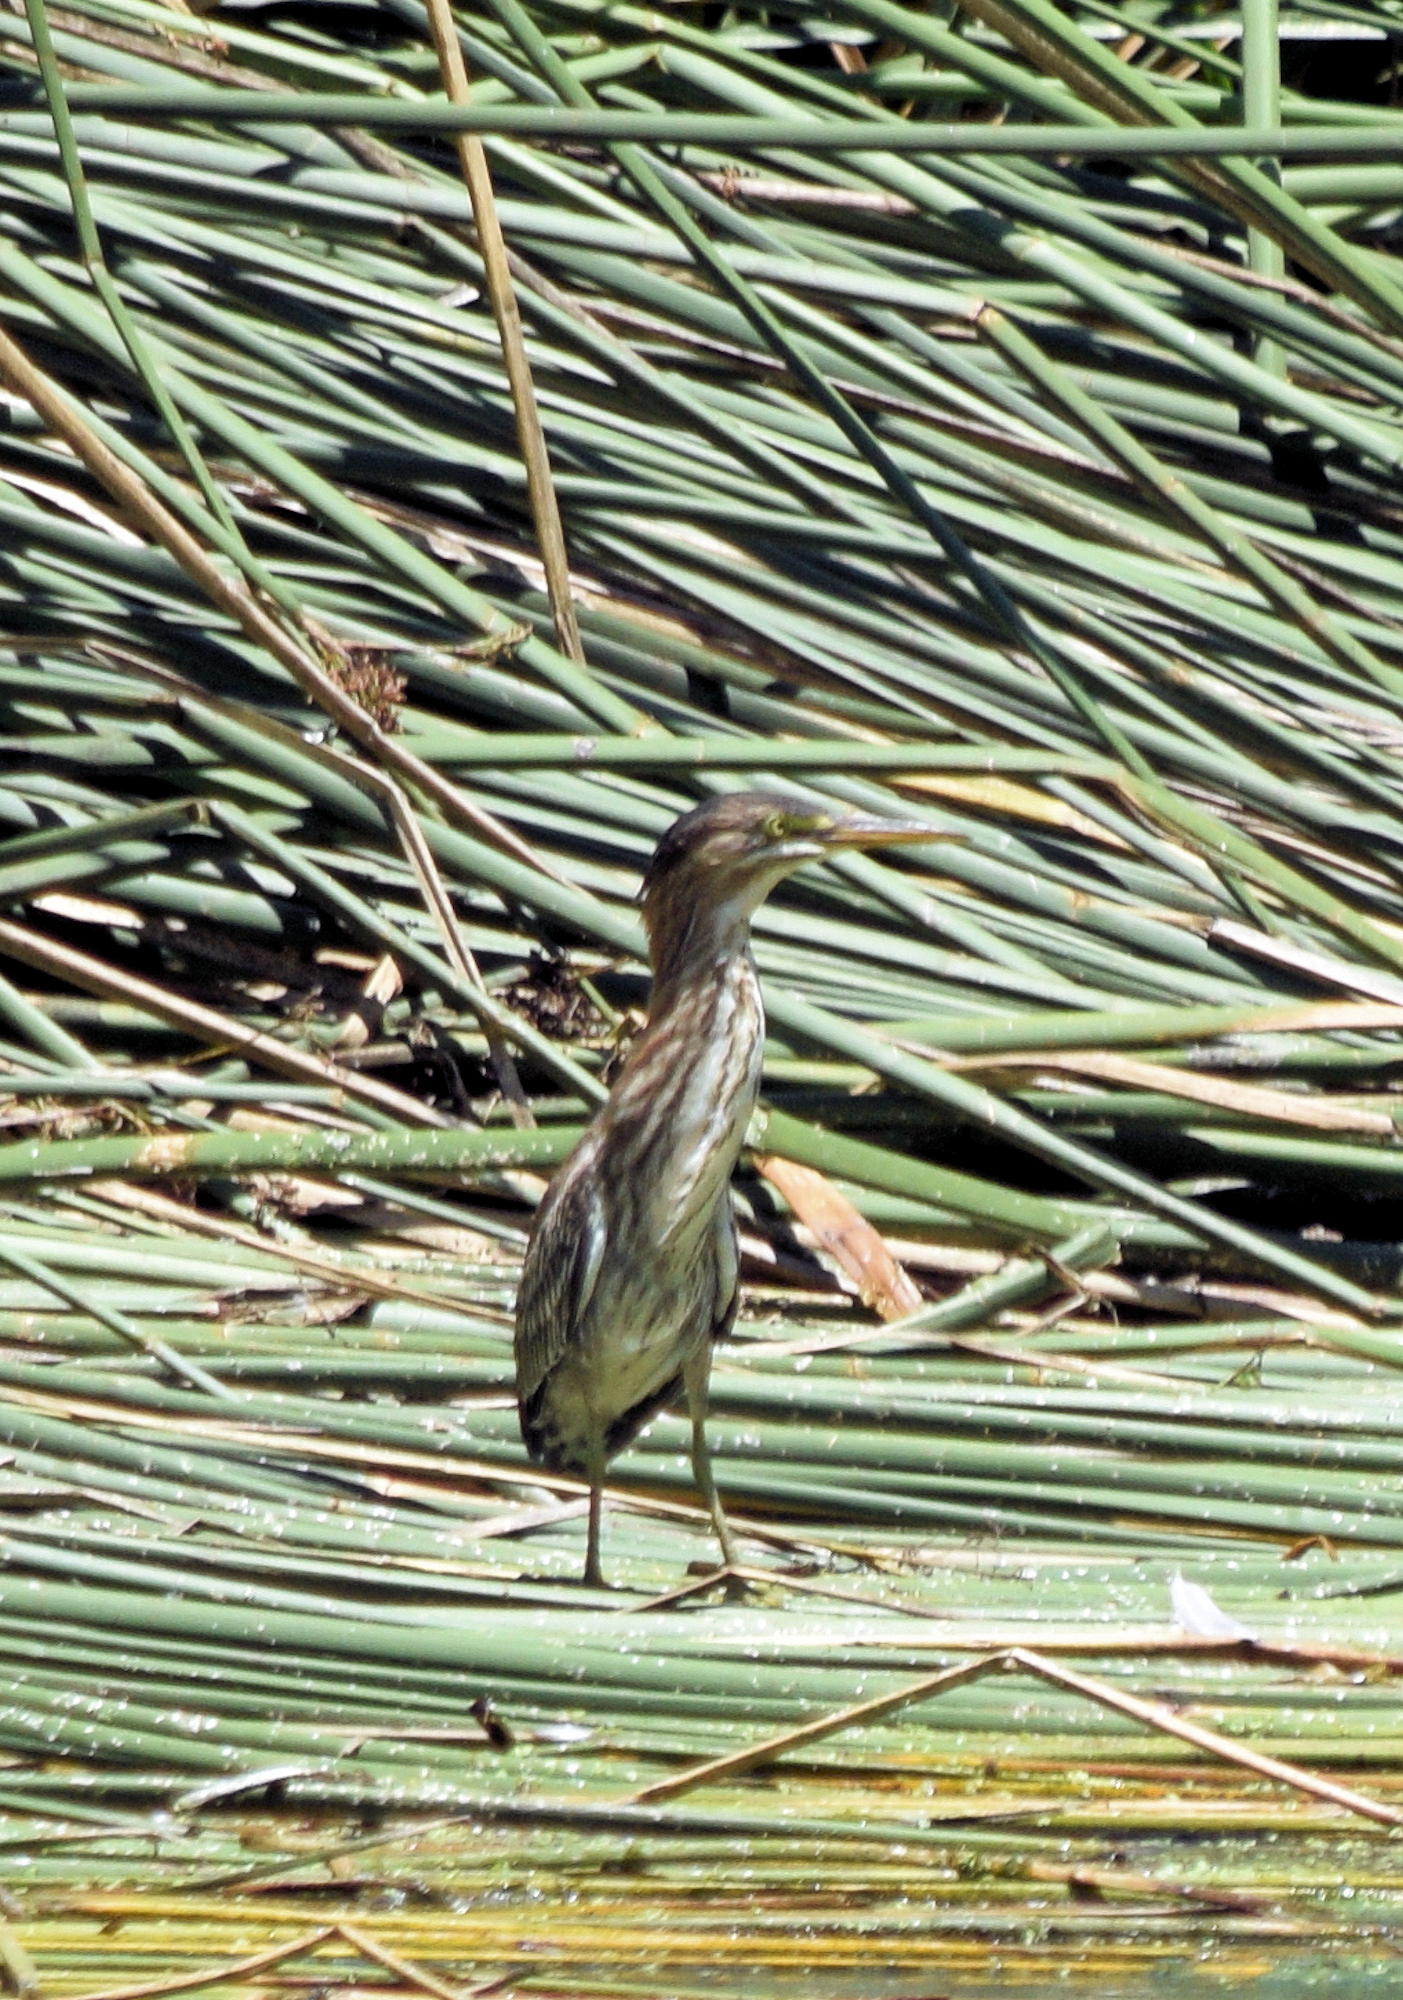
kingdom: Animalia
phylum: Chordata
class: Aves
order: Pelecaniformes
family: Ardeidae
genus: Butorides
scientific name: Butorides virescens
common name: Green heron
